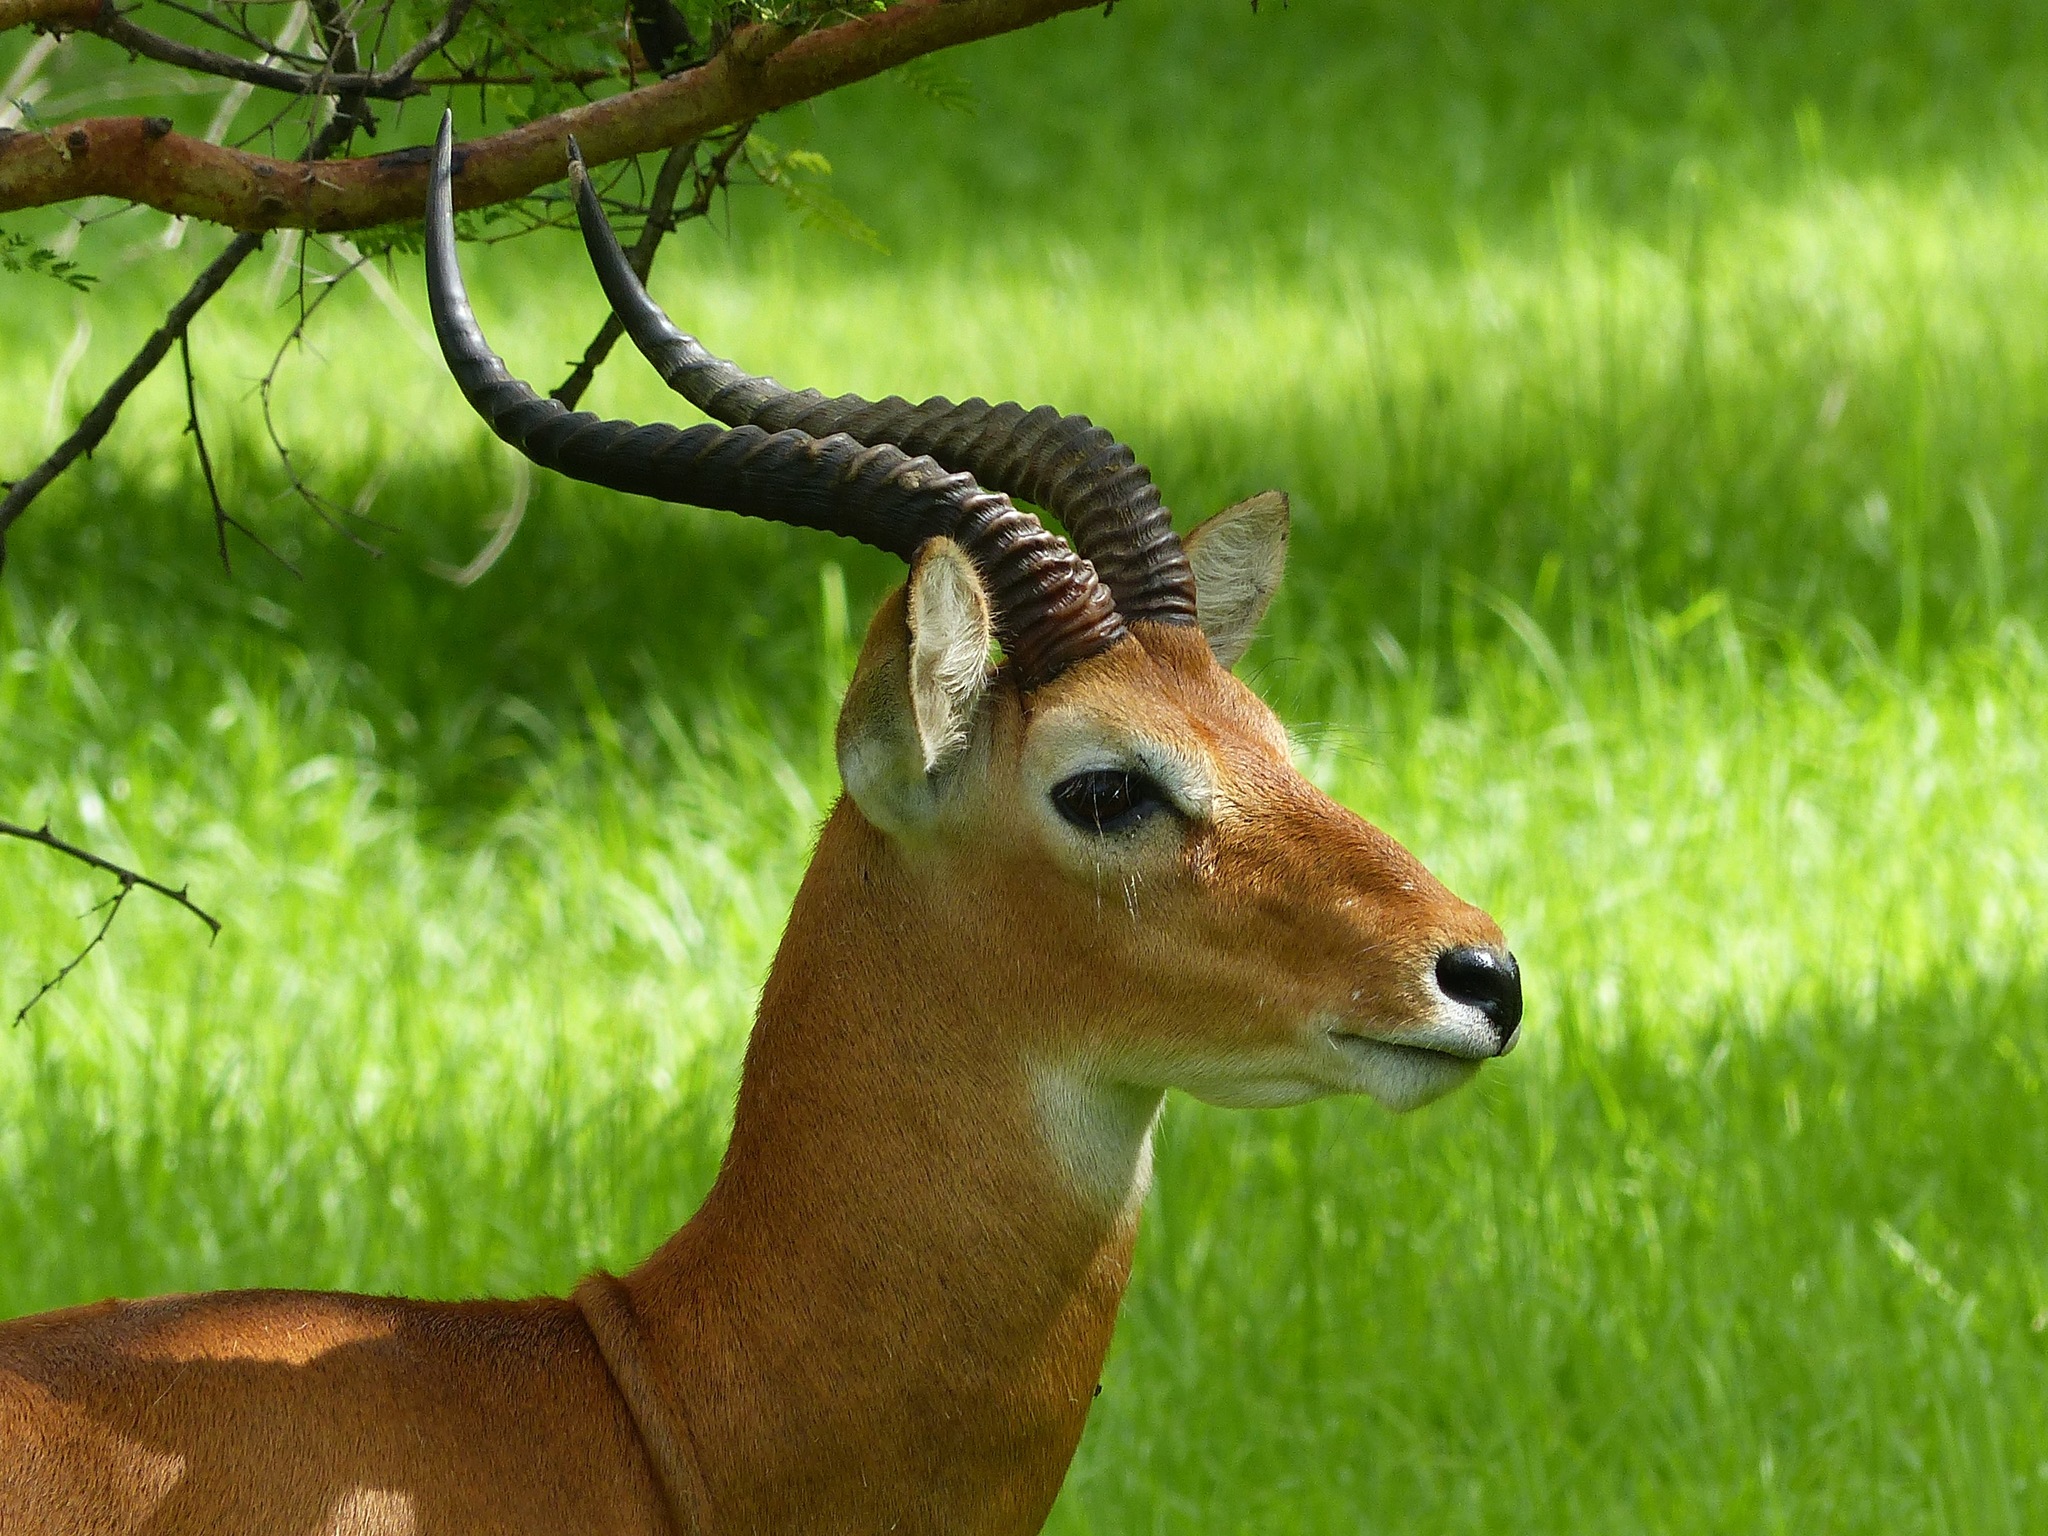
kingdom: Animalia
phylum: Chordata
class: Mammalia
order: Artiodactyla
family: Bovidae
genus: Kobus
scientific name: Kobus kob
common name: Kob
